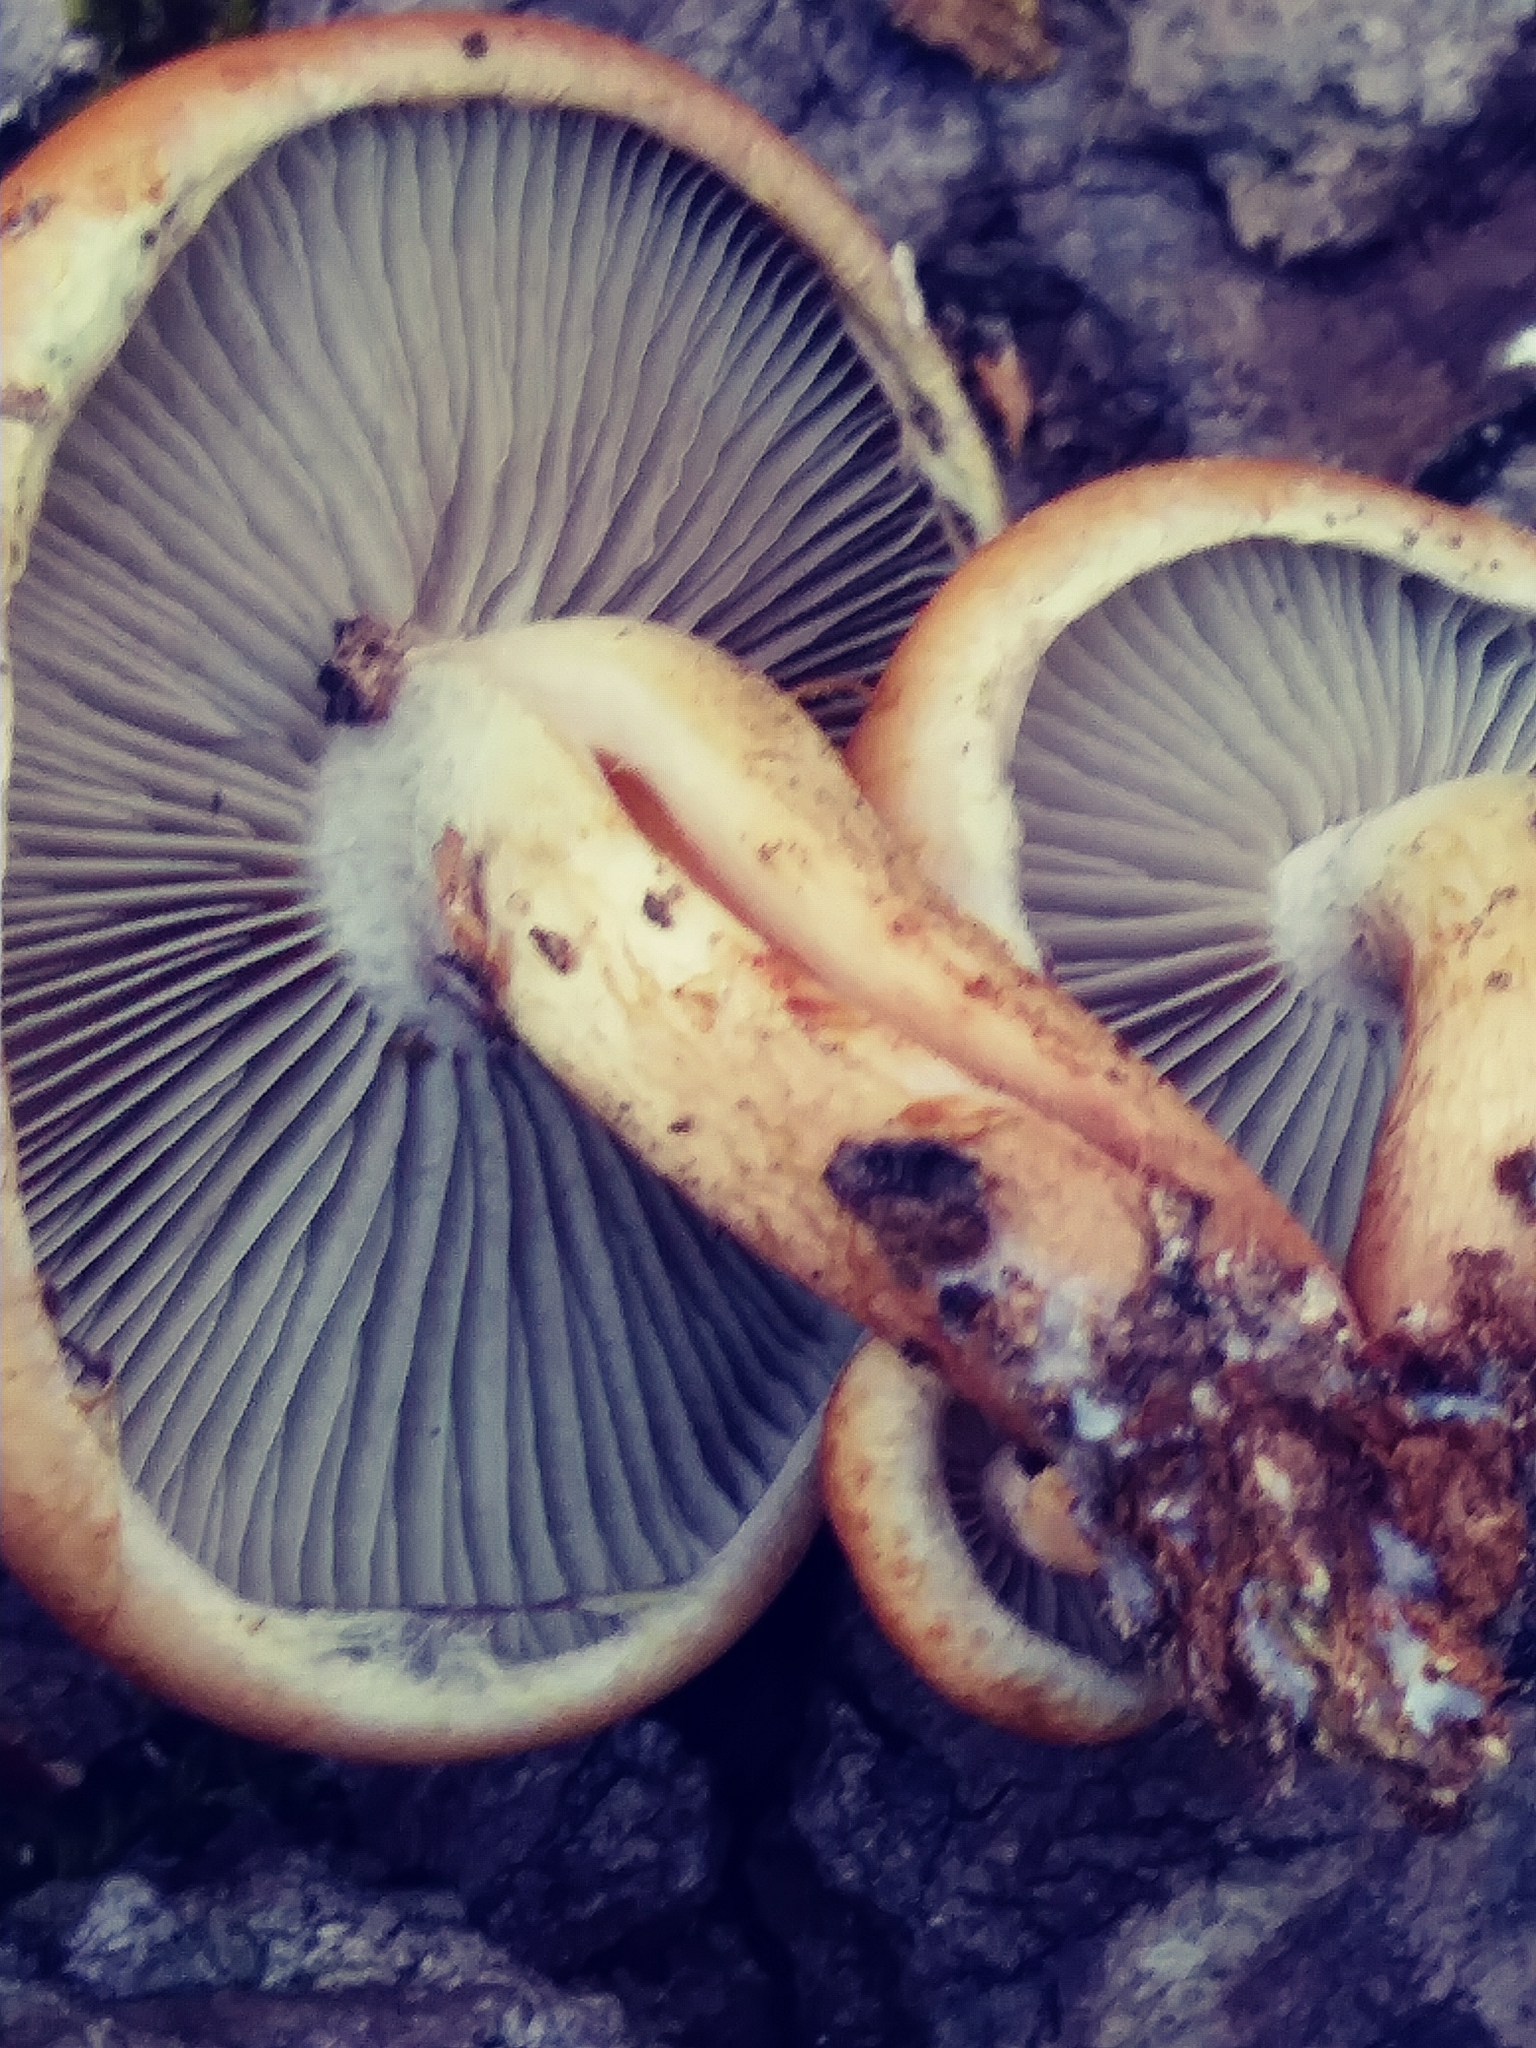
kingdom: Fungi
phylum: Basidiomycota
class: Agaricomycetes
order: Agaricales
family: Strophariaceae
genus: Hypholoma
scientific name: Hypholoma lateritium
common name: Brick caps
